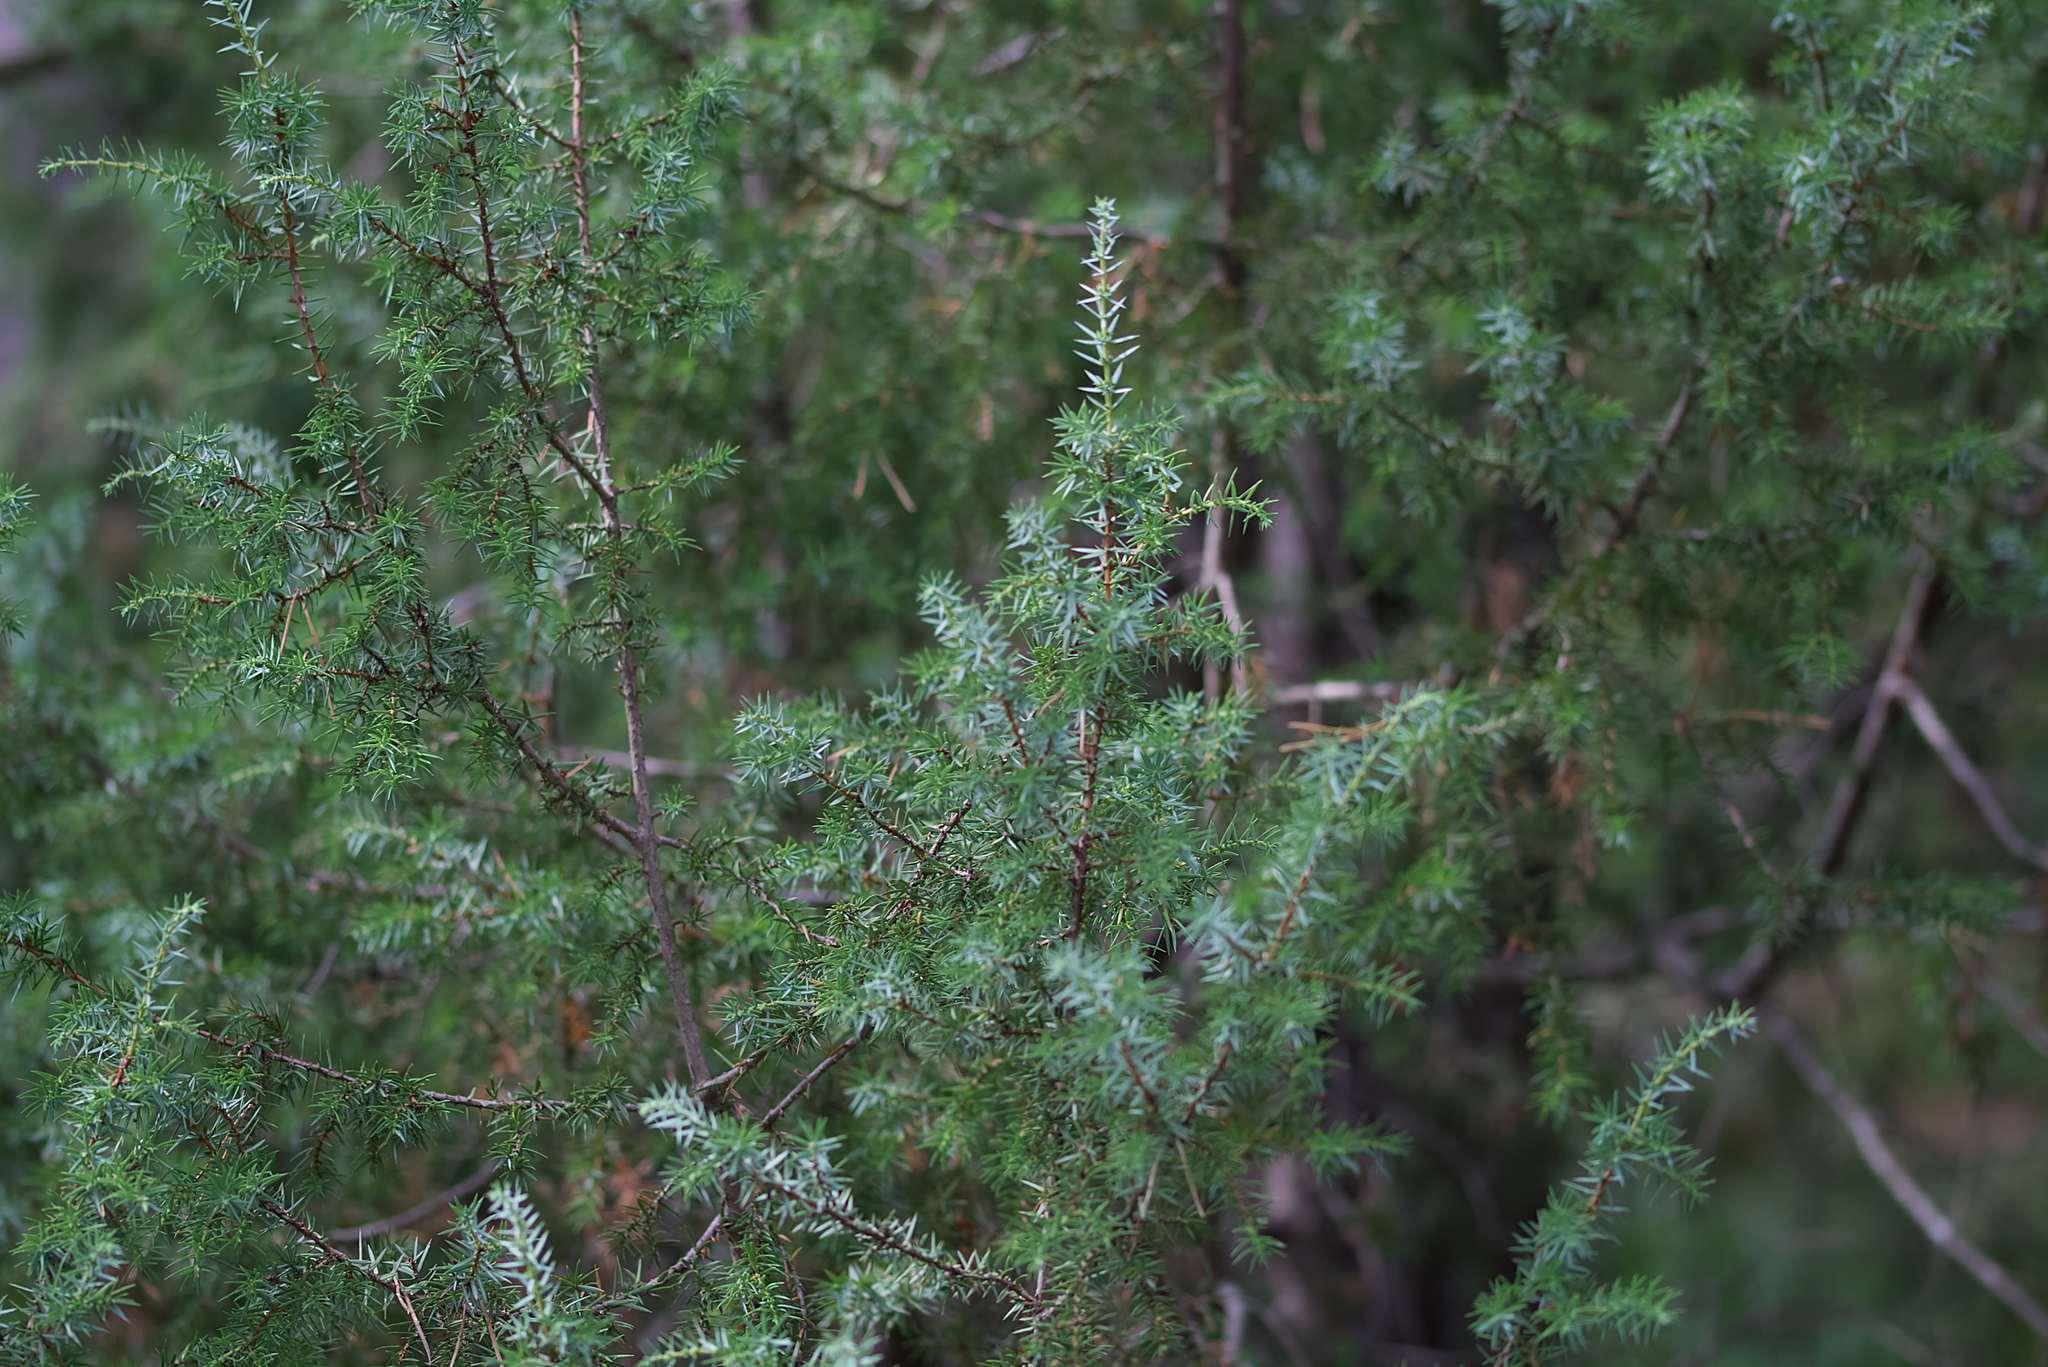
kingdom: Plantae
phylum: Tracheophyta
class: Pinopsida
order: Pinales
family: Cupressaceae
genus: Juniperus
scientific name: Juniperus communis
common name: Common juniper
